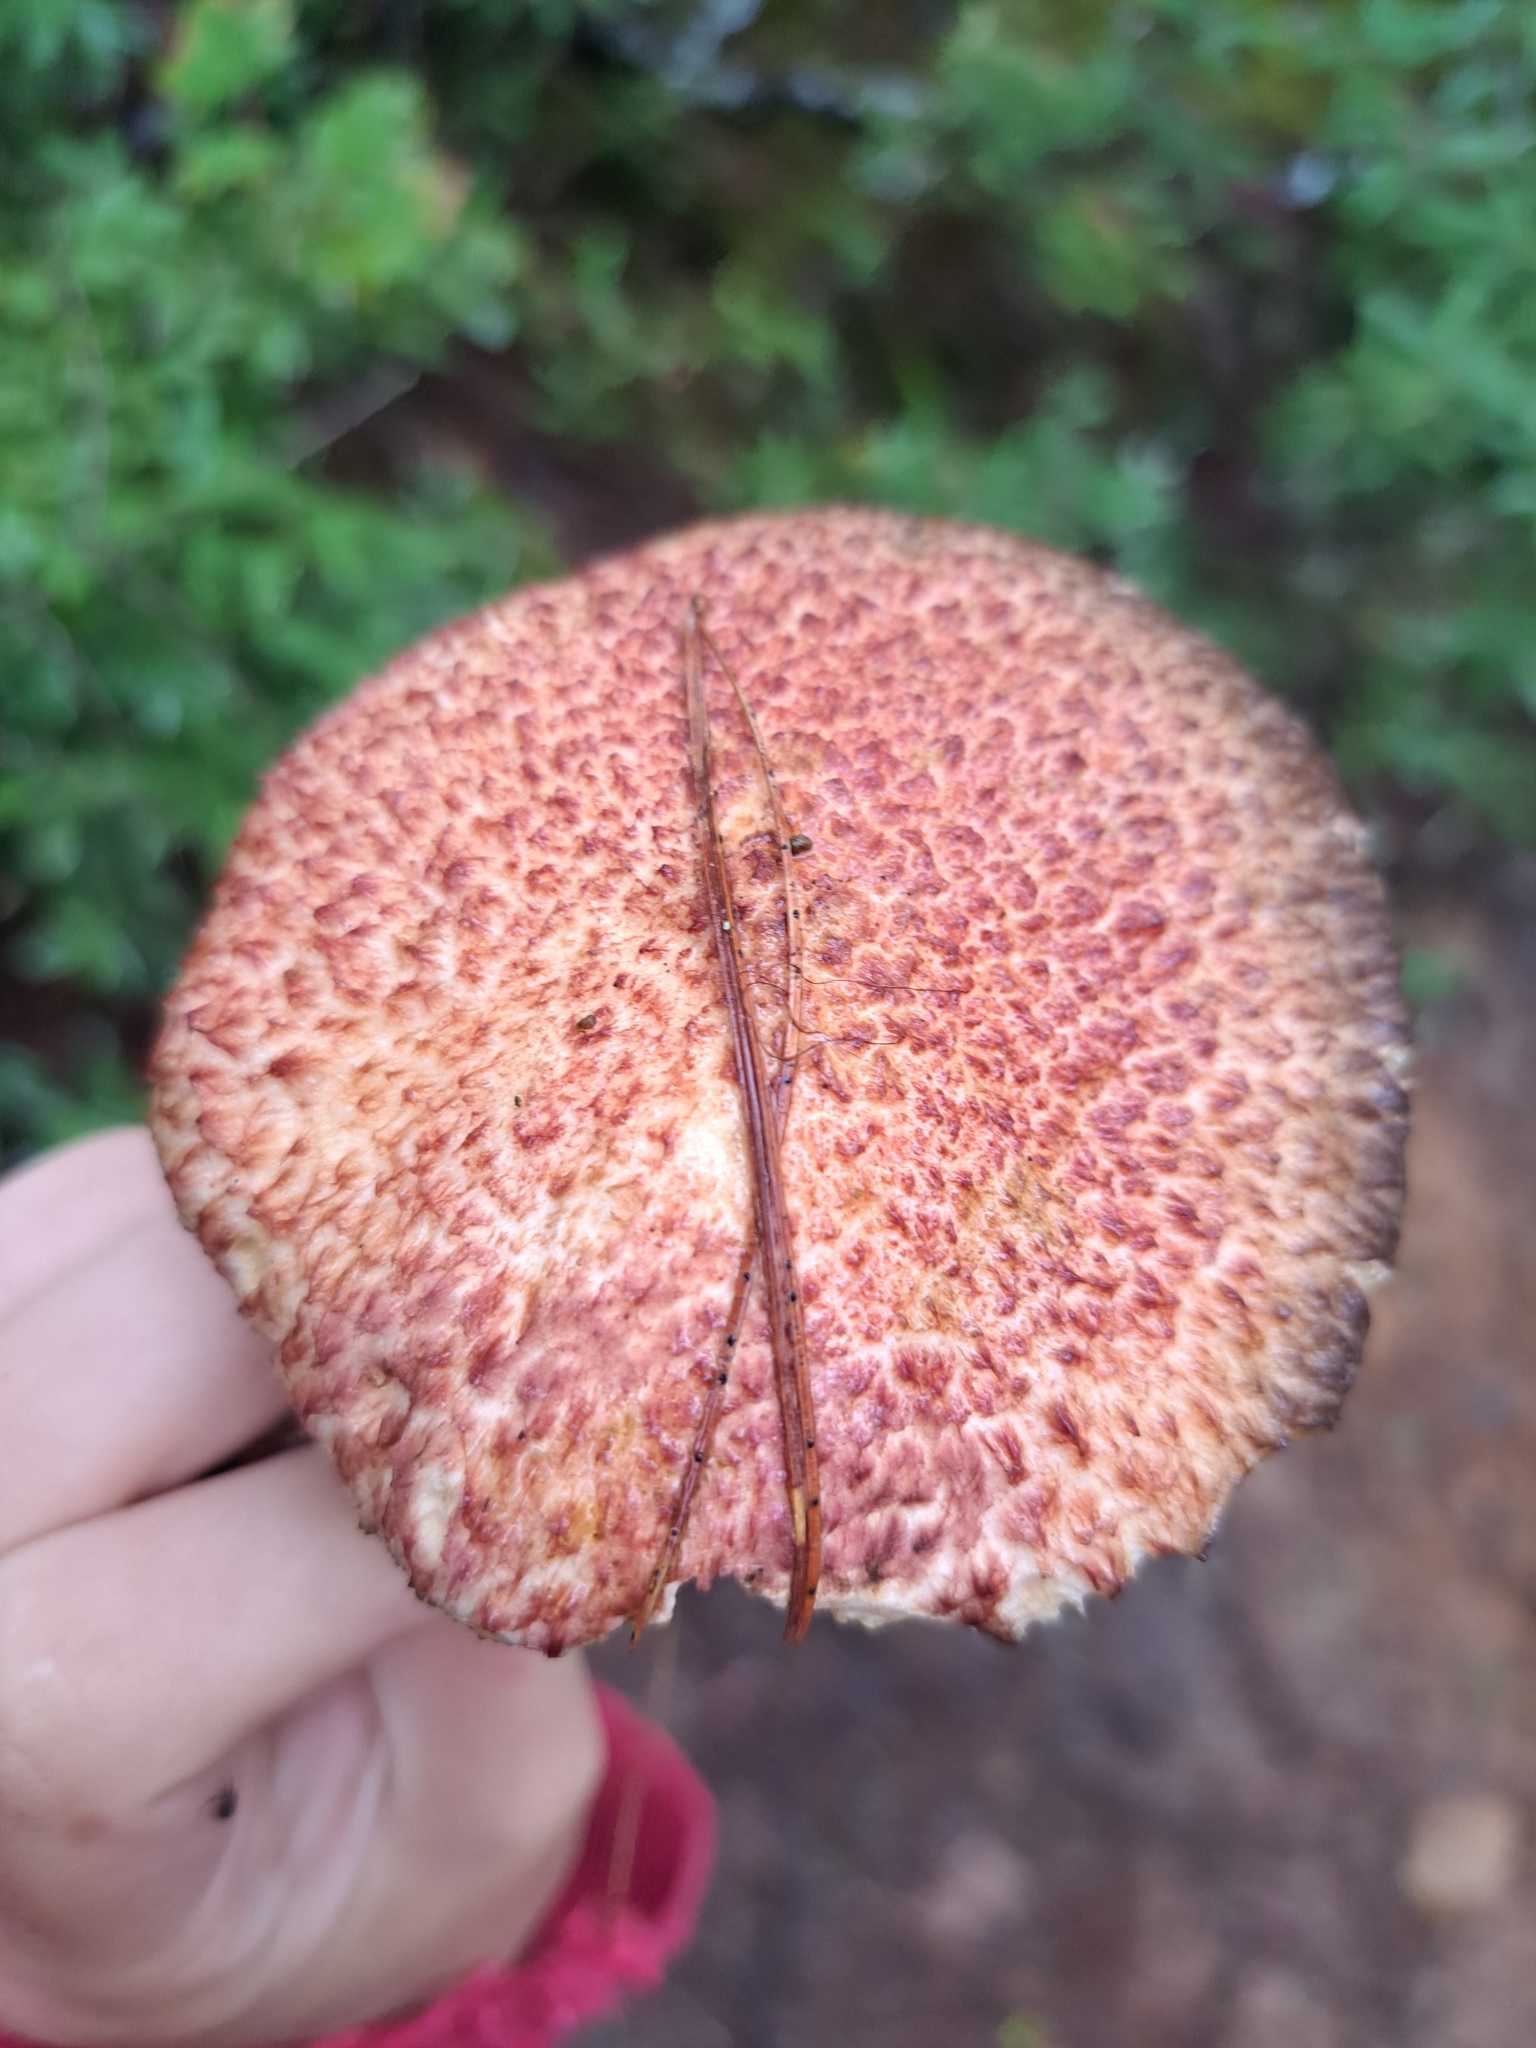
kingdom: Fungi
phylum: Basidiomycota
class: Agaricomycetes
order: Boletales
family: Suillaceae
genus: Suillus
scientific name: Suillus spraguei
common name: Painted suillus
